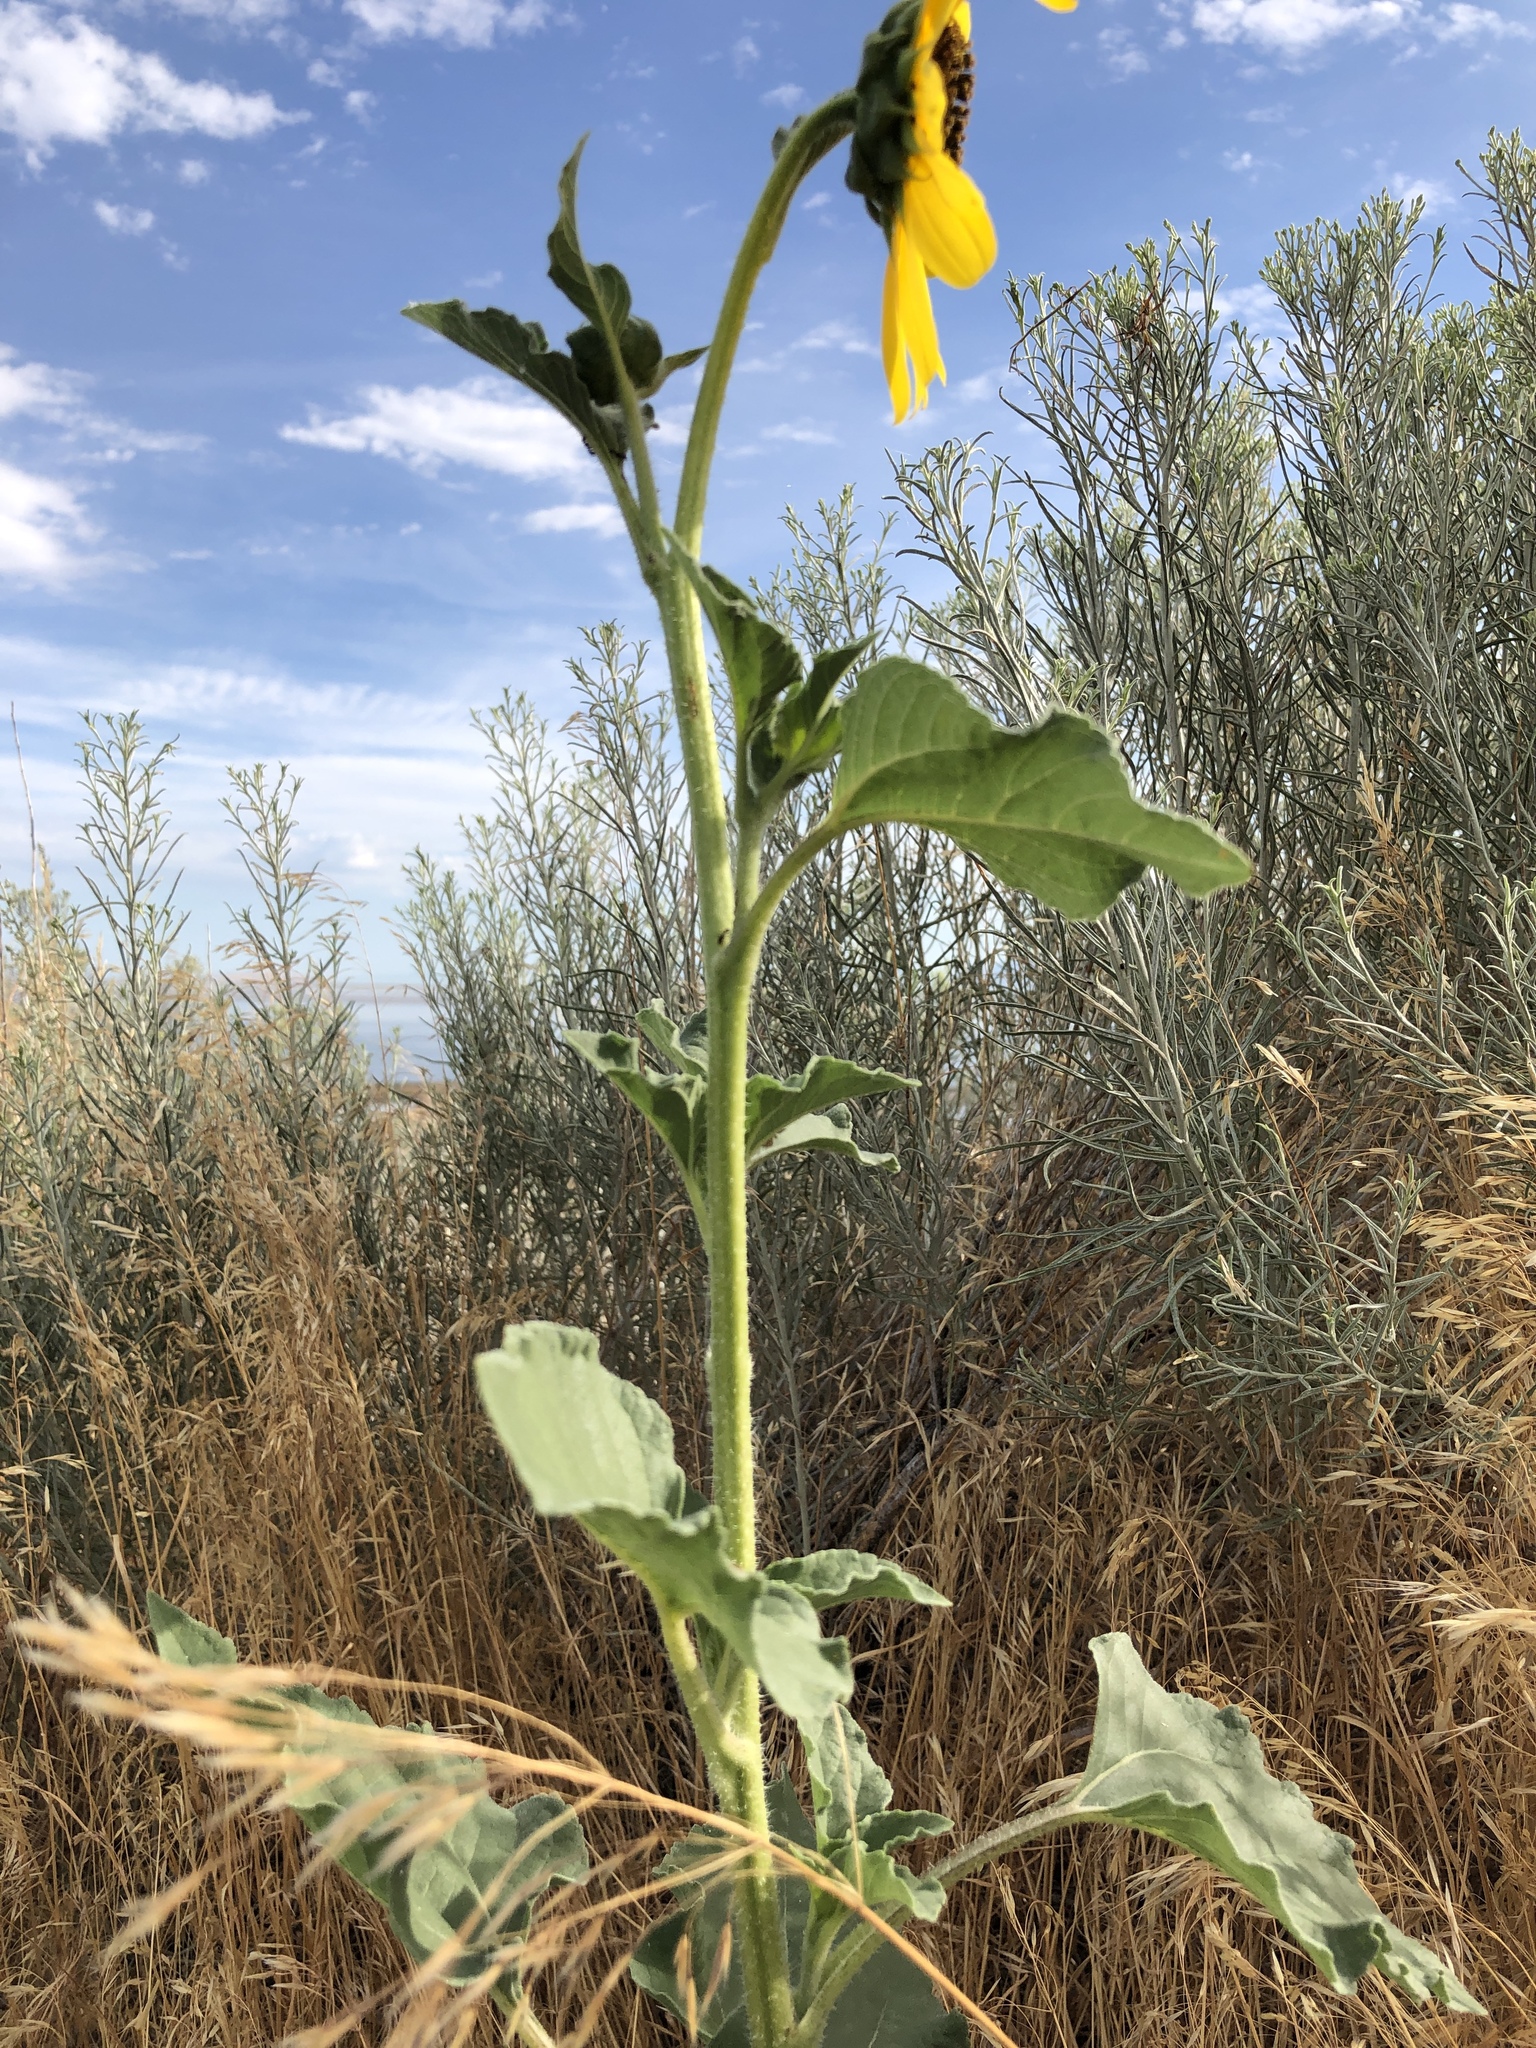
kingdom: Plantae
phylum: Tracheophyta
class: Magnoliopsida
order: Asterales
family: Asteraceae
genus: Helianthus
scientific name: Helianthus annuus
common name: Sunflower
